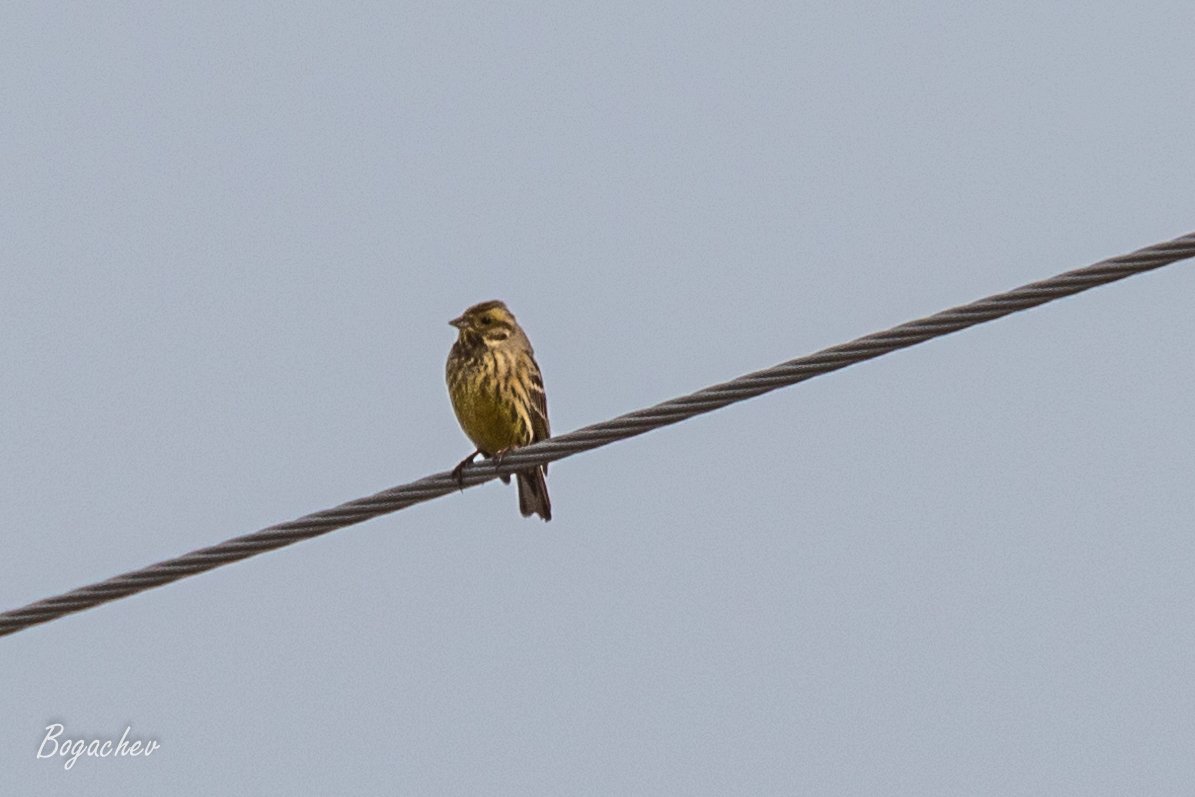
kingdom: Animalia
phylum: Chordata
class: Aves
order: Passeriformes
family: Emberizidae
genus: Emberiza
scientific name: Emberiza citrinella
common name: Yellowhammer
